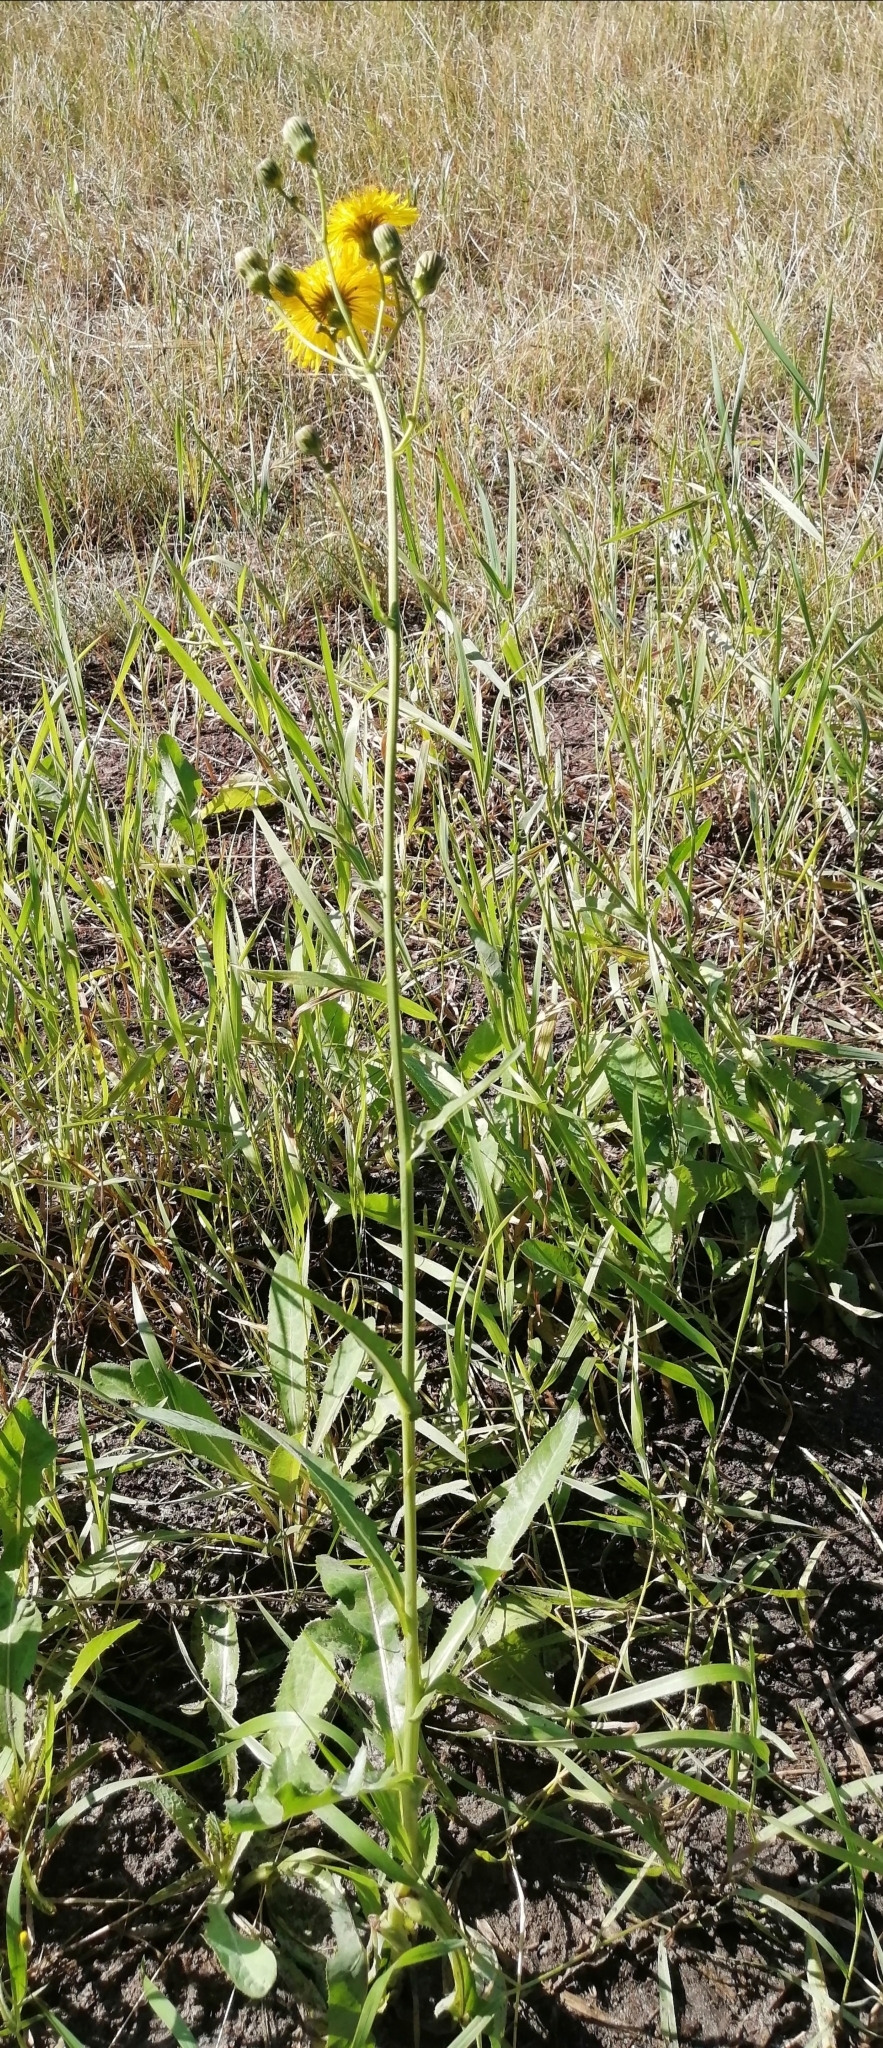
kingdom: Plantae
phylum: Tracheophyta
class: Magnoliopsida
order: Asterales
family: Asteraceae
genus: Sonchus
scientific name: Sonchus arvensis
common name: Perennial sow-thistle
